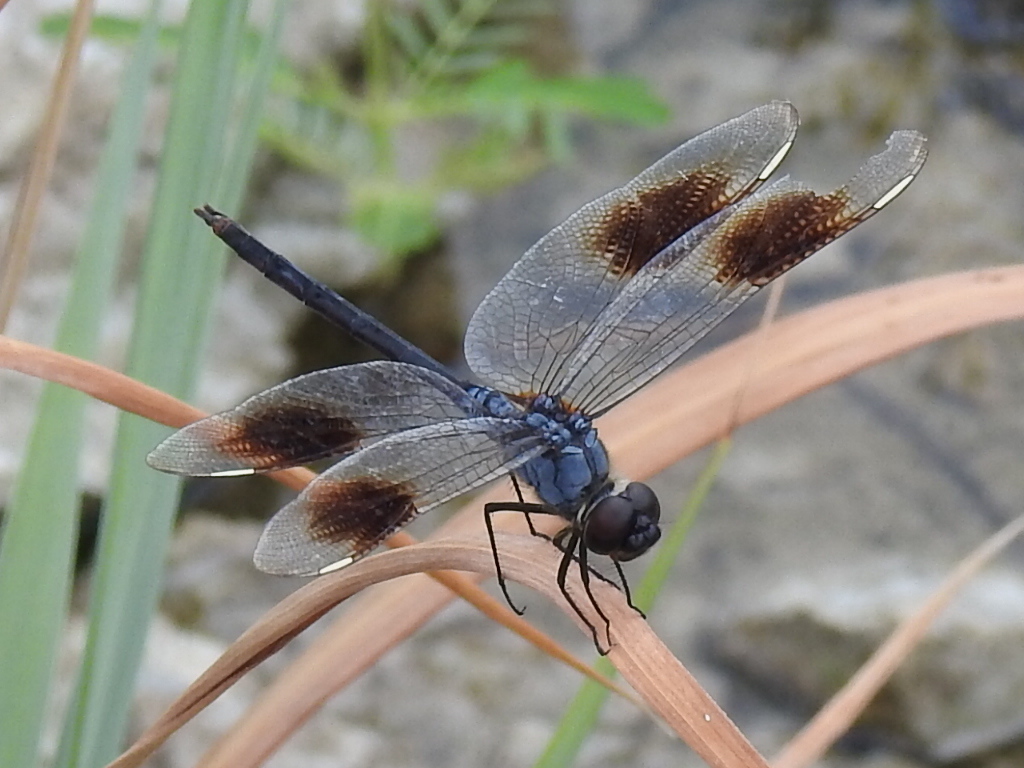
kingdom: Animalia
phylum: Arthropoda
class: Insecta
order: Odonata
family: Libellulidae
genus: Brachymesia
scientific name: Brachymesia gravida
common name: Four-spotted pennant
